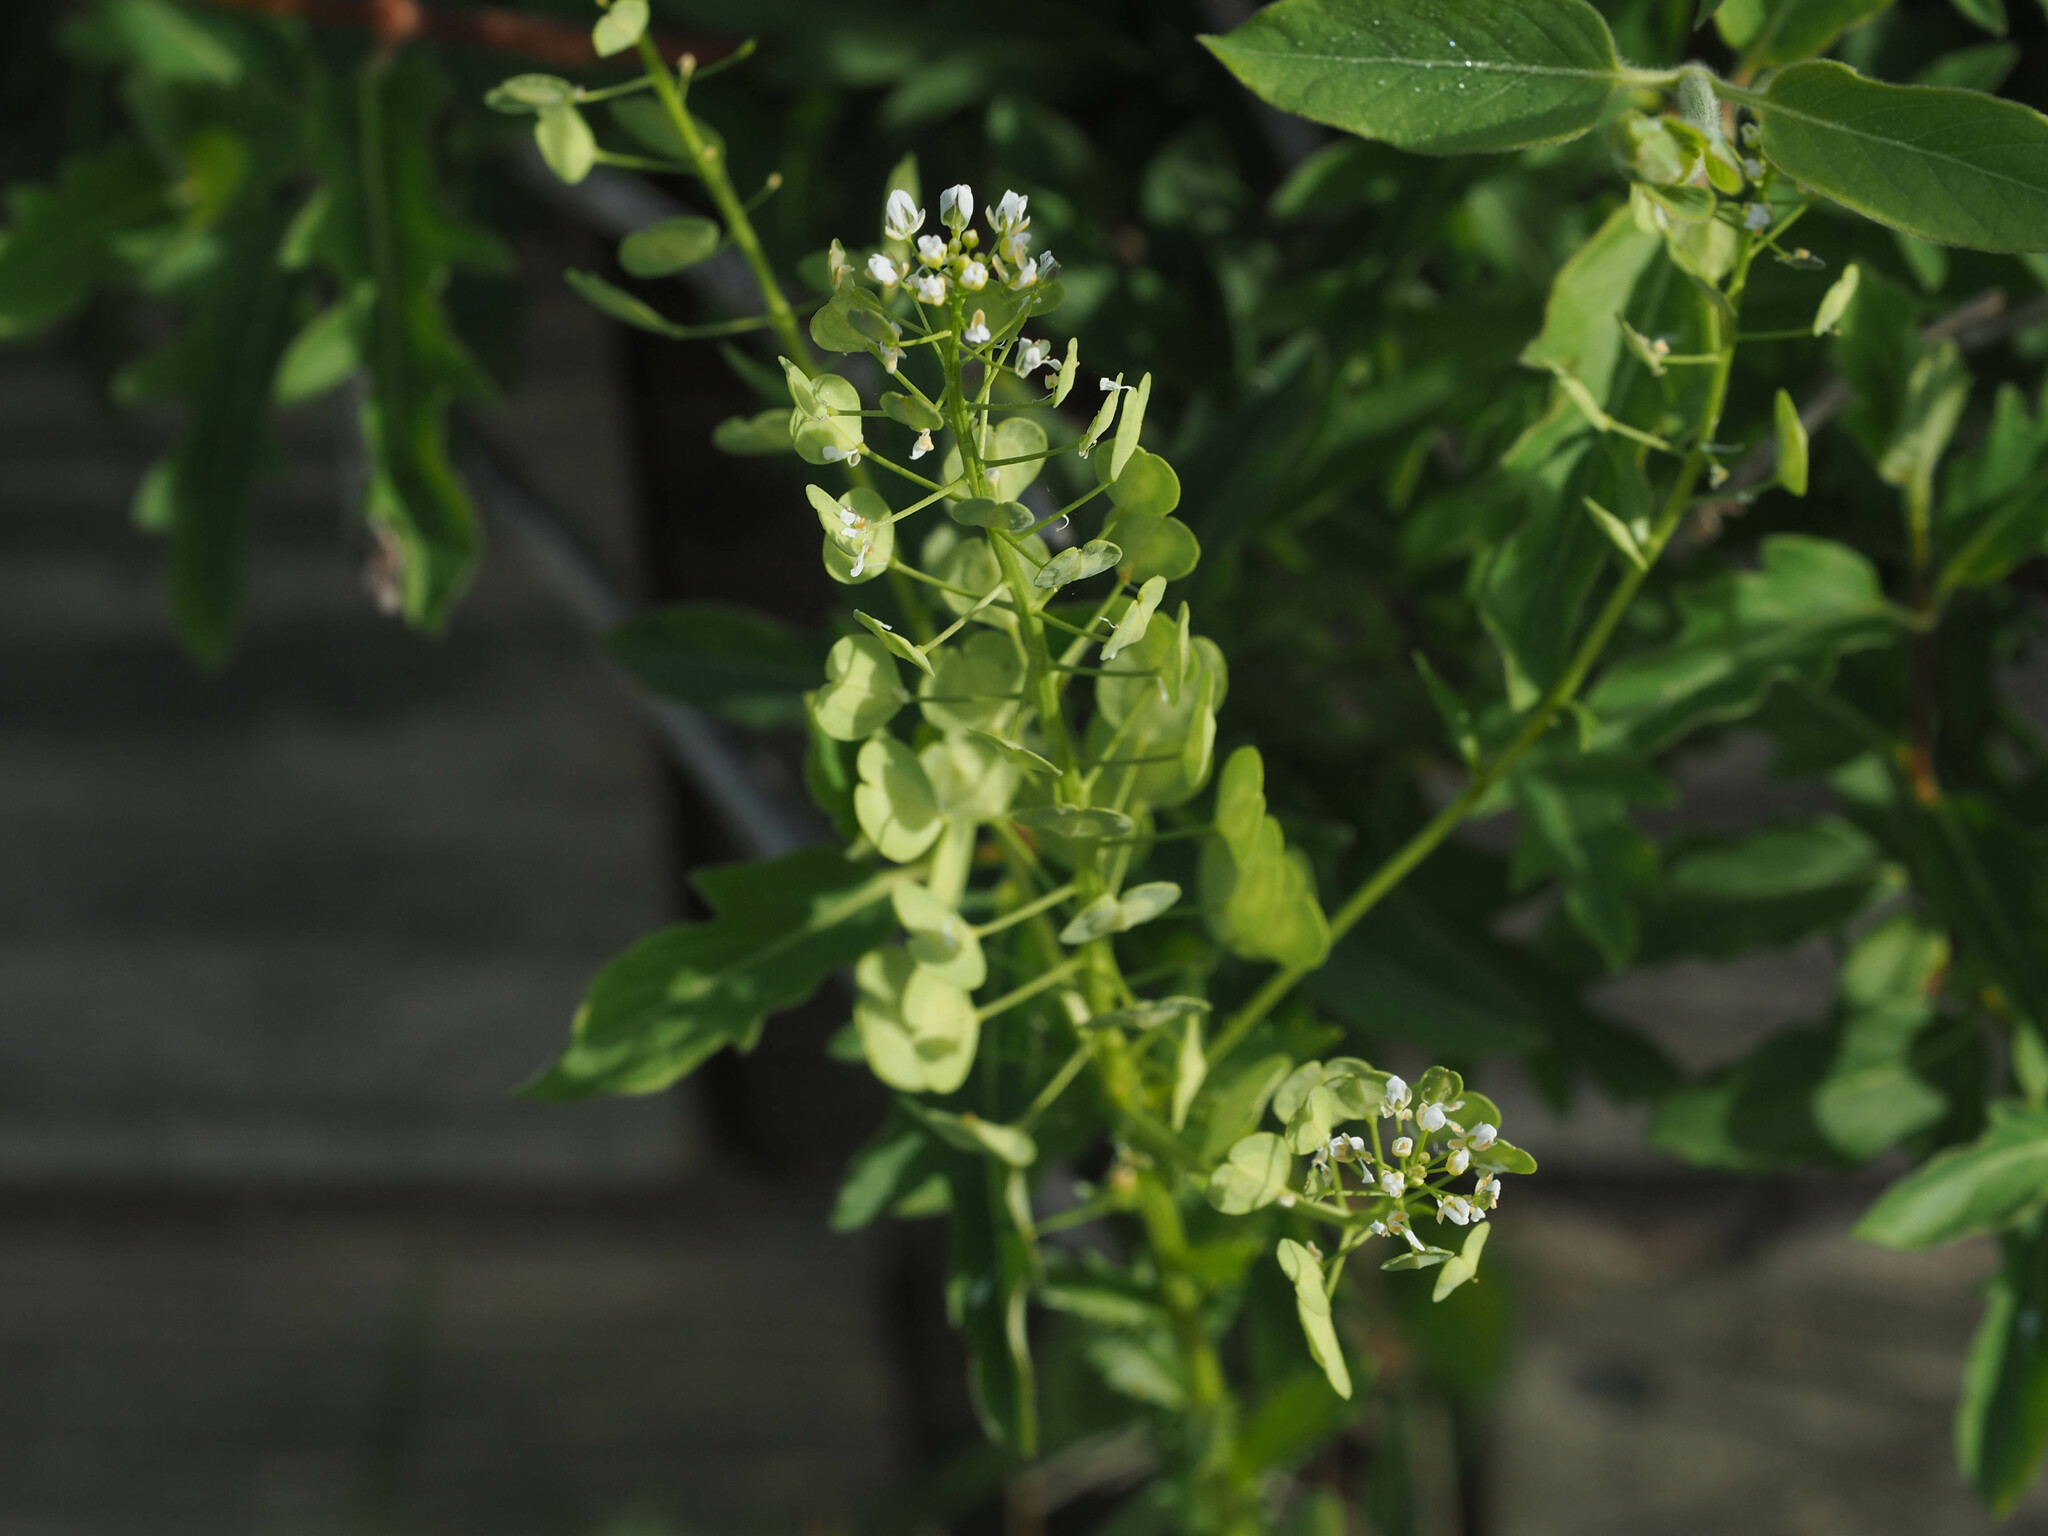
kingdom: Plantae
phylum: Tracheophyta
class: Magnoliopsida
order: Brassicales
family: Brassicaceae
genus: Thlaspi
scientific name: Thlaspi arvense
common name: Field pennycress
